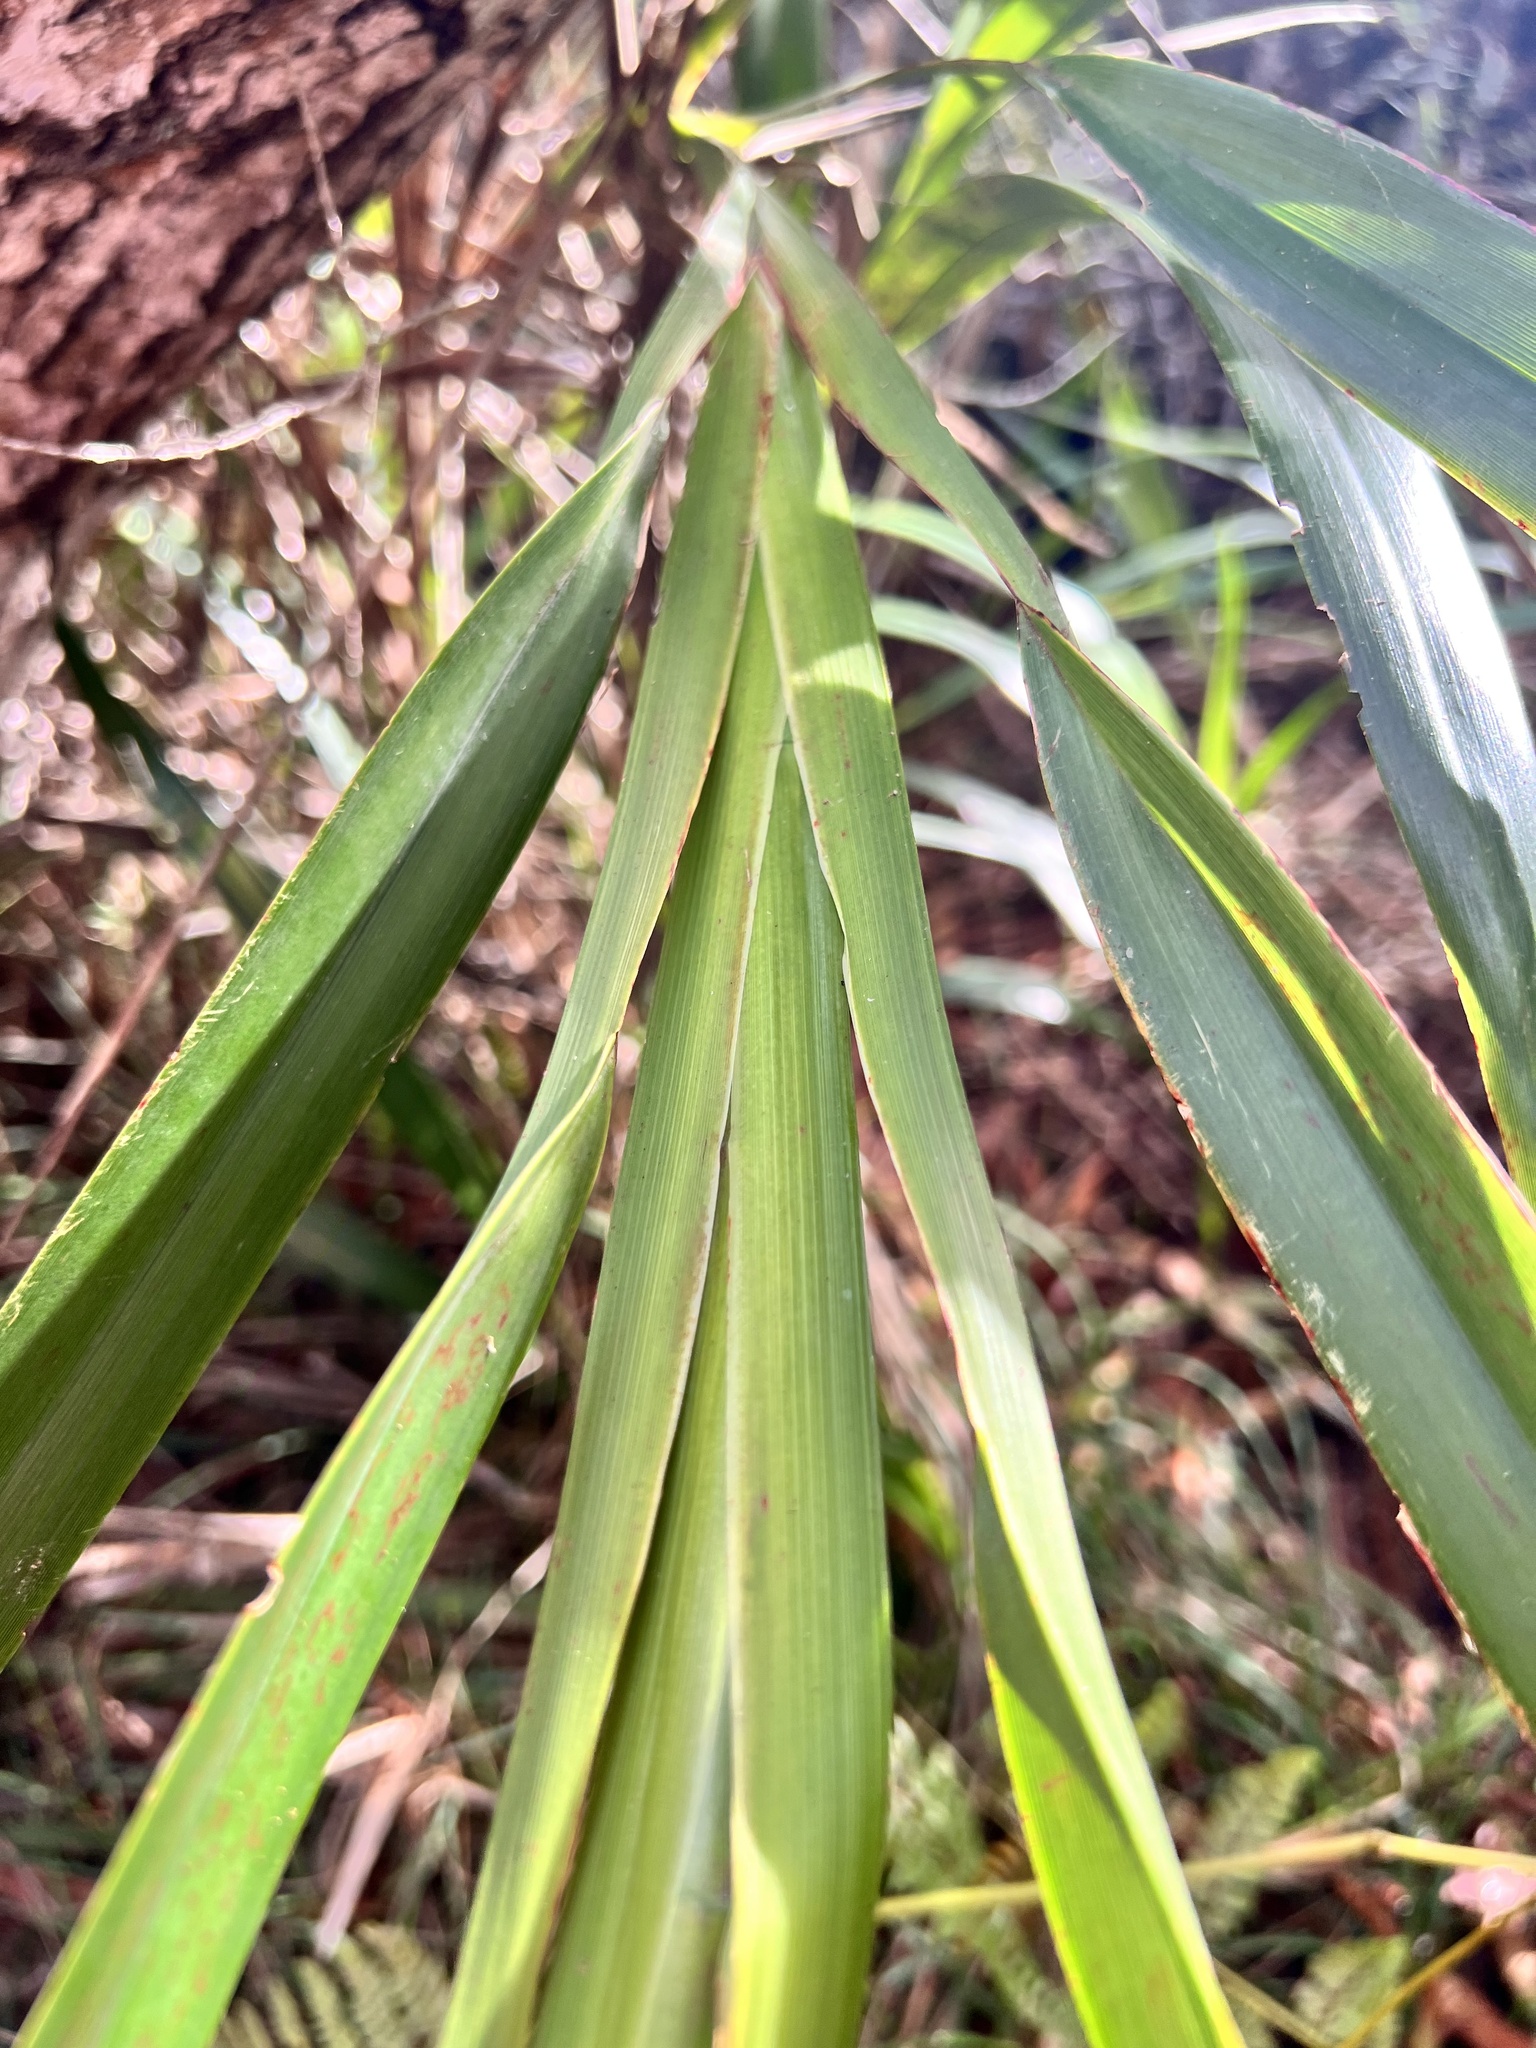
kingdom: Plantae
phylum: Tracheophyta
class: Liliopsida
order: Asparagales
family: Asphodelaceae
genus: Dianella
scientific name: Dianella sandwicensis
